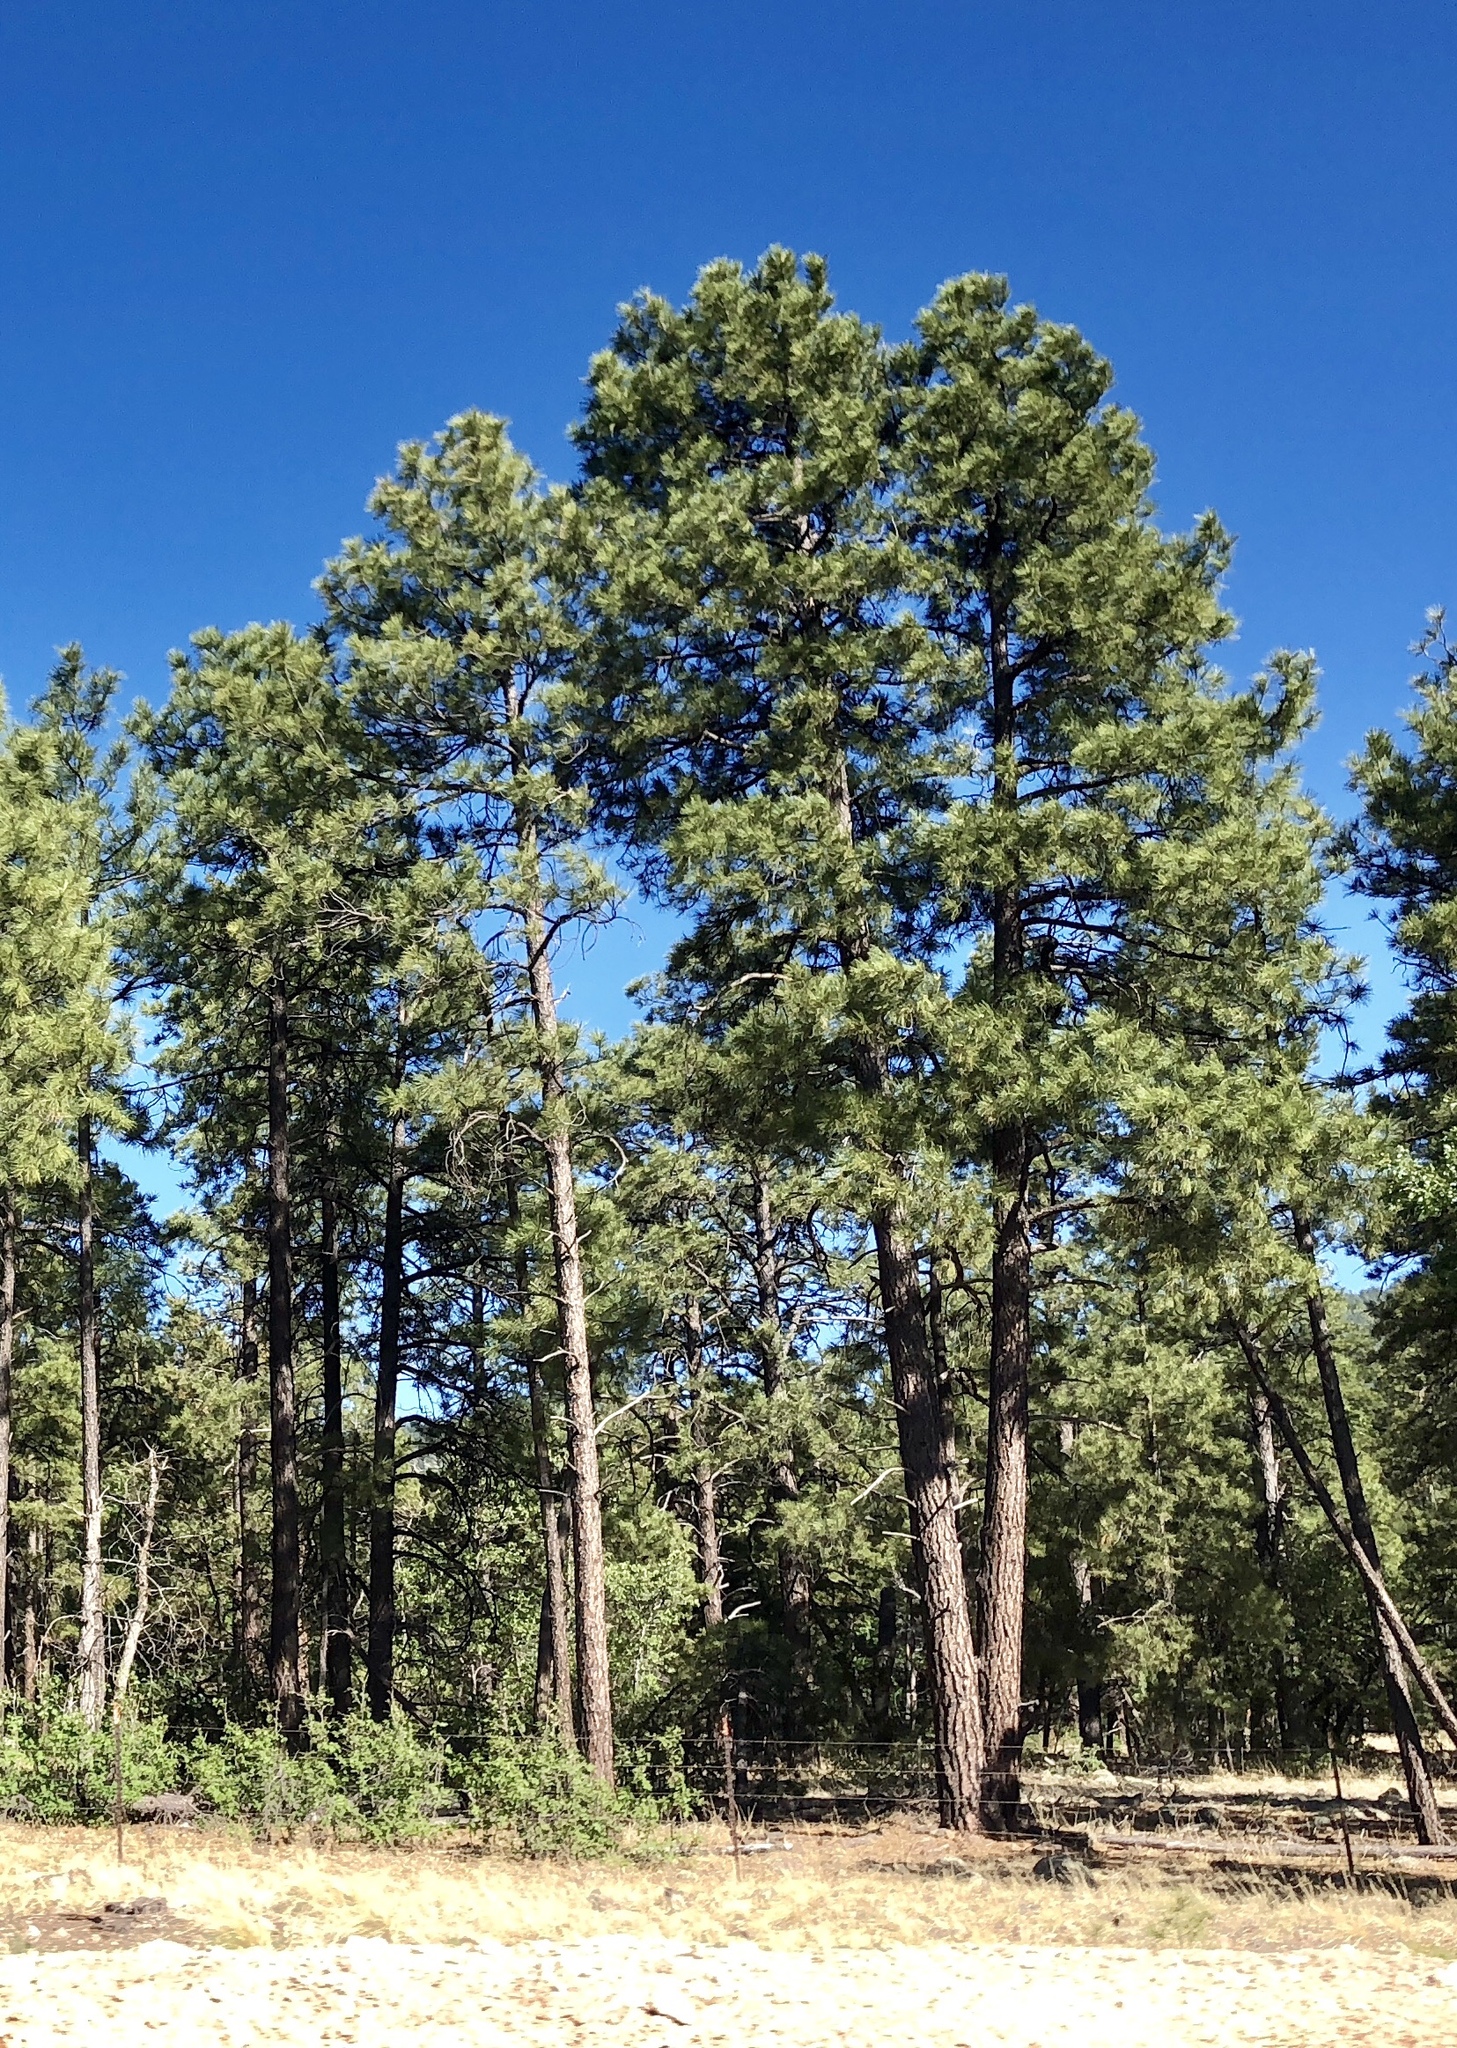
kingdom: Plantae
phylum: Tracheophyta
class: Pinopsida
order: Pinales
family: Pinaceae
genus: Pinus
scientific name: Pinus ponderosa
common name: Western yellow-pine
